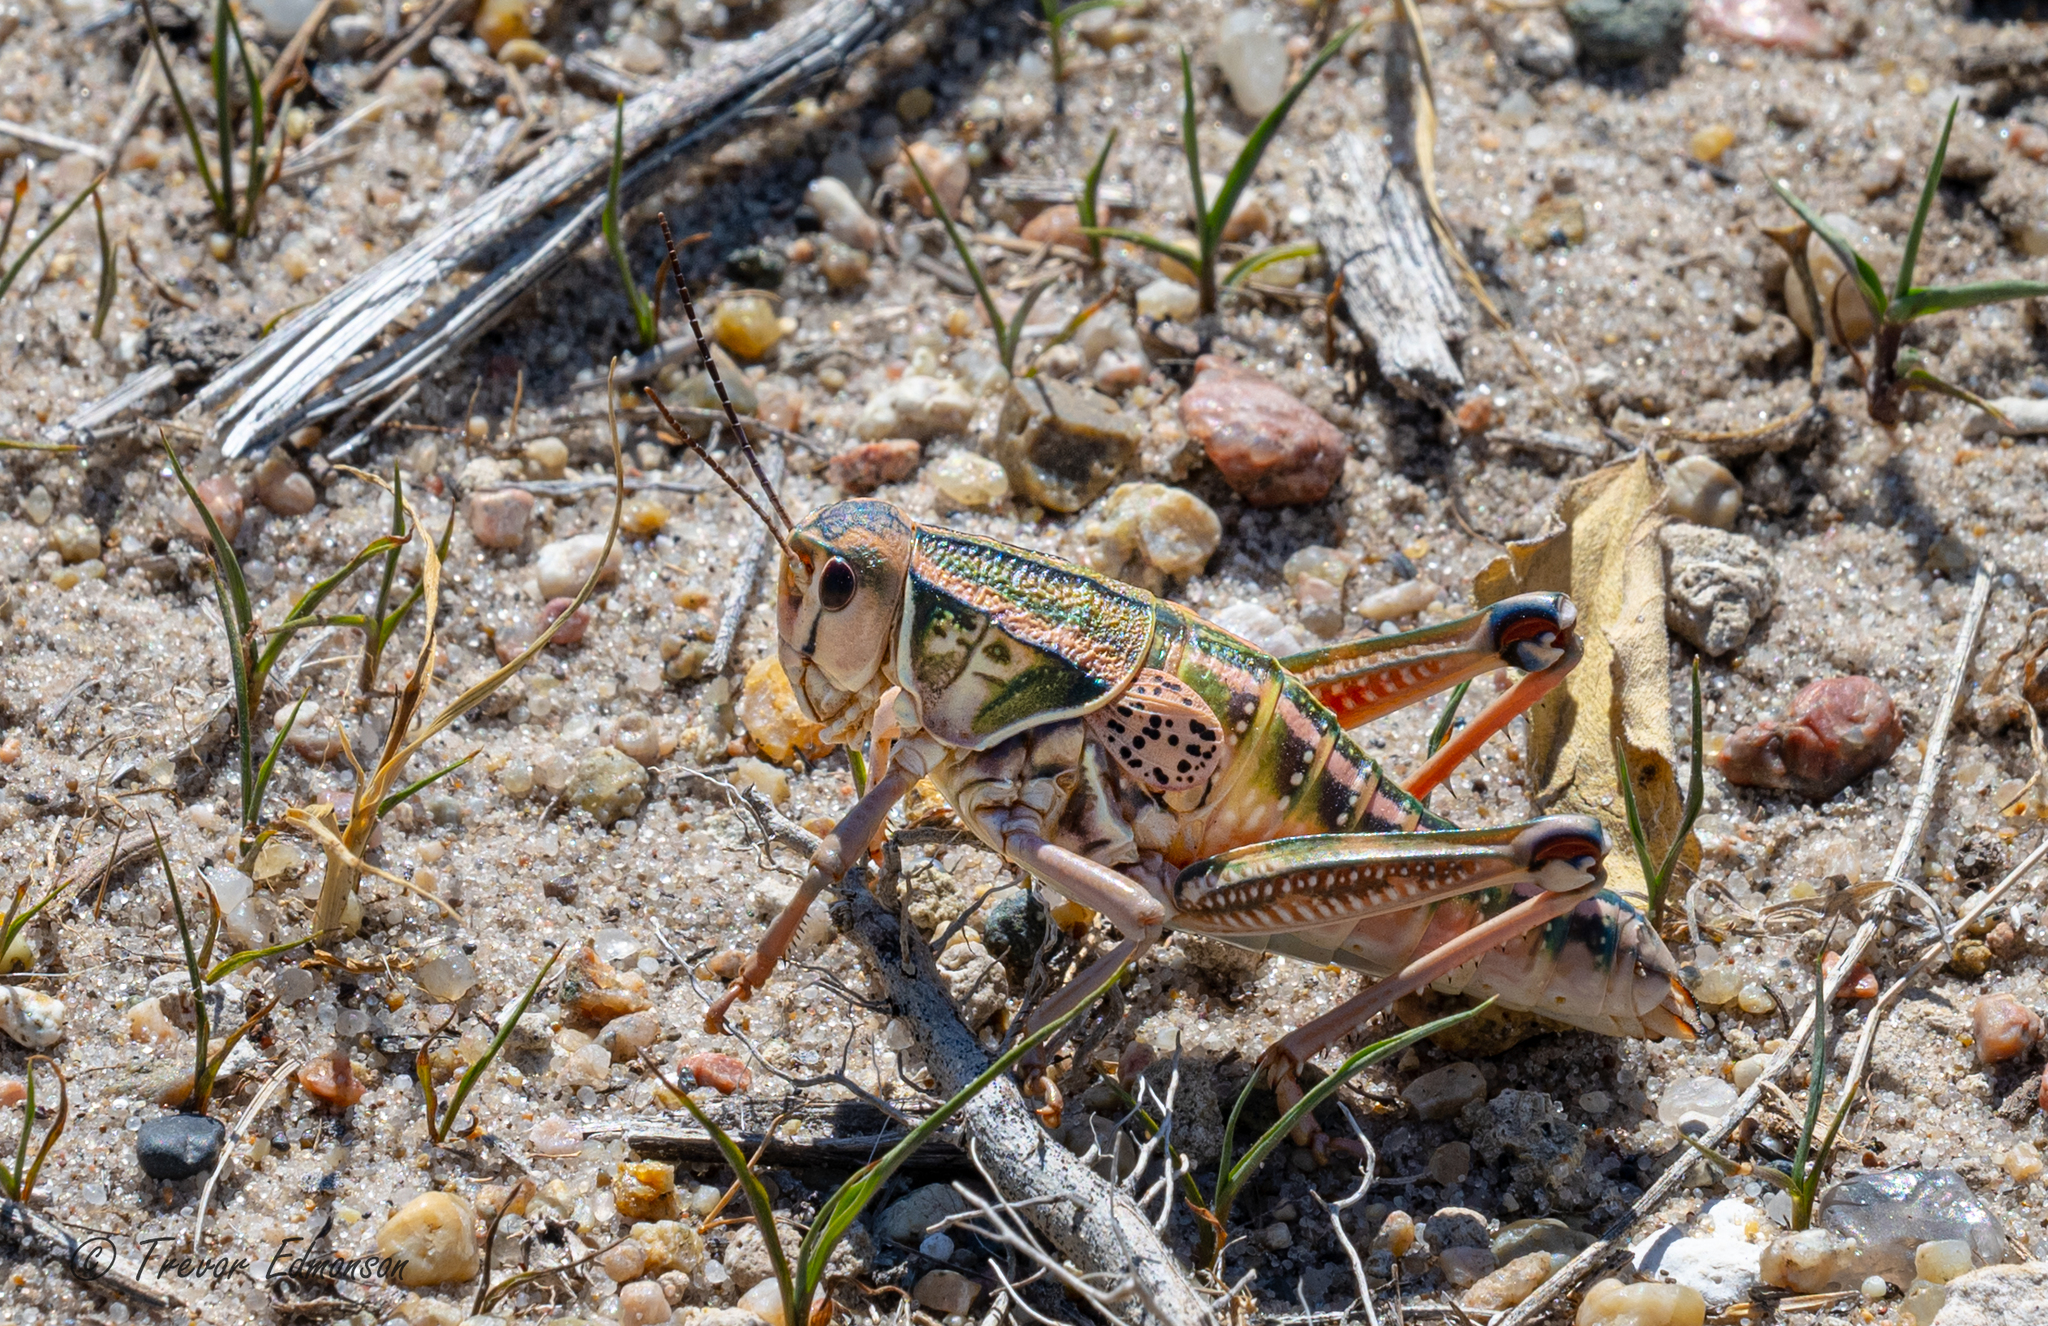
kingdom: Animalia
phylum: Arthropoda
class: Insecta
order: Orthoptera
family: Romaleidae
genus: Brachystola
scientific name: Brachystola magna
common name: Plains lubber grasshopper
